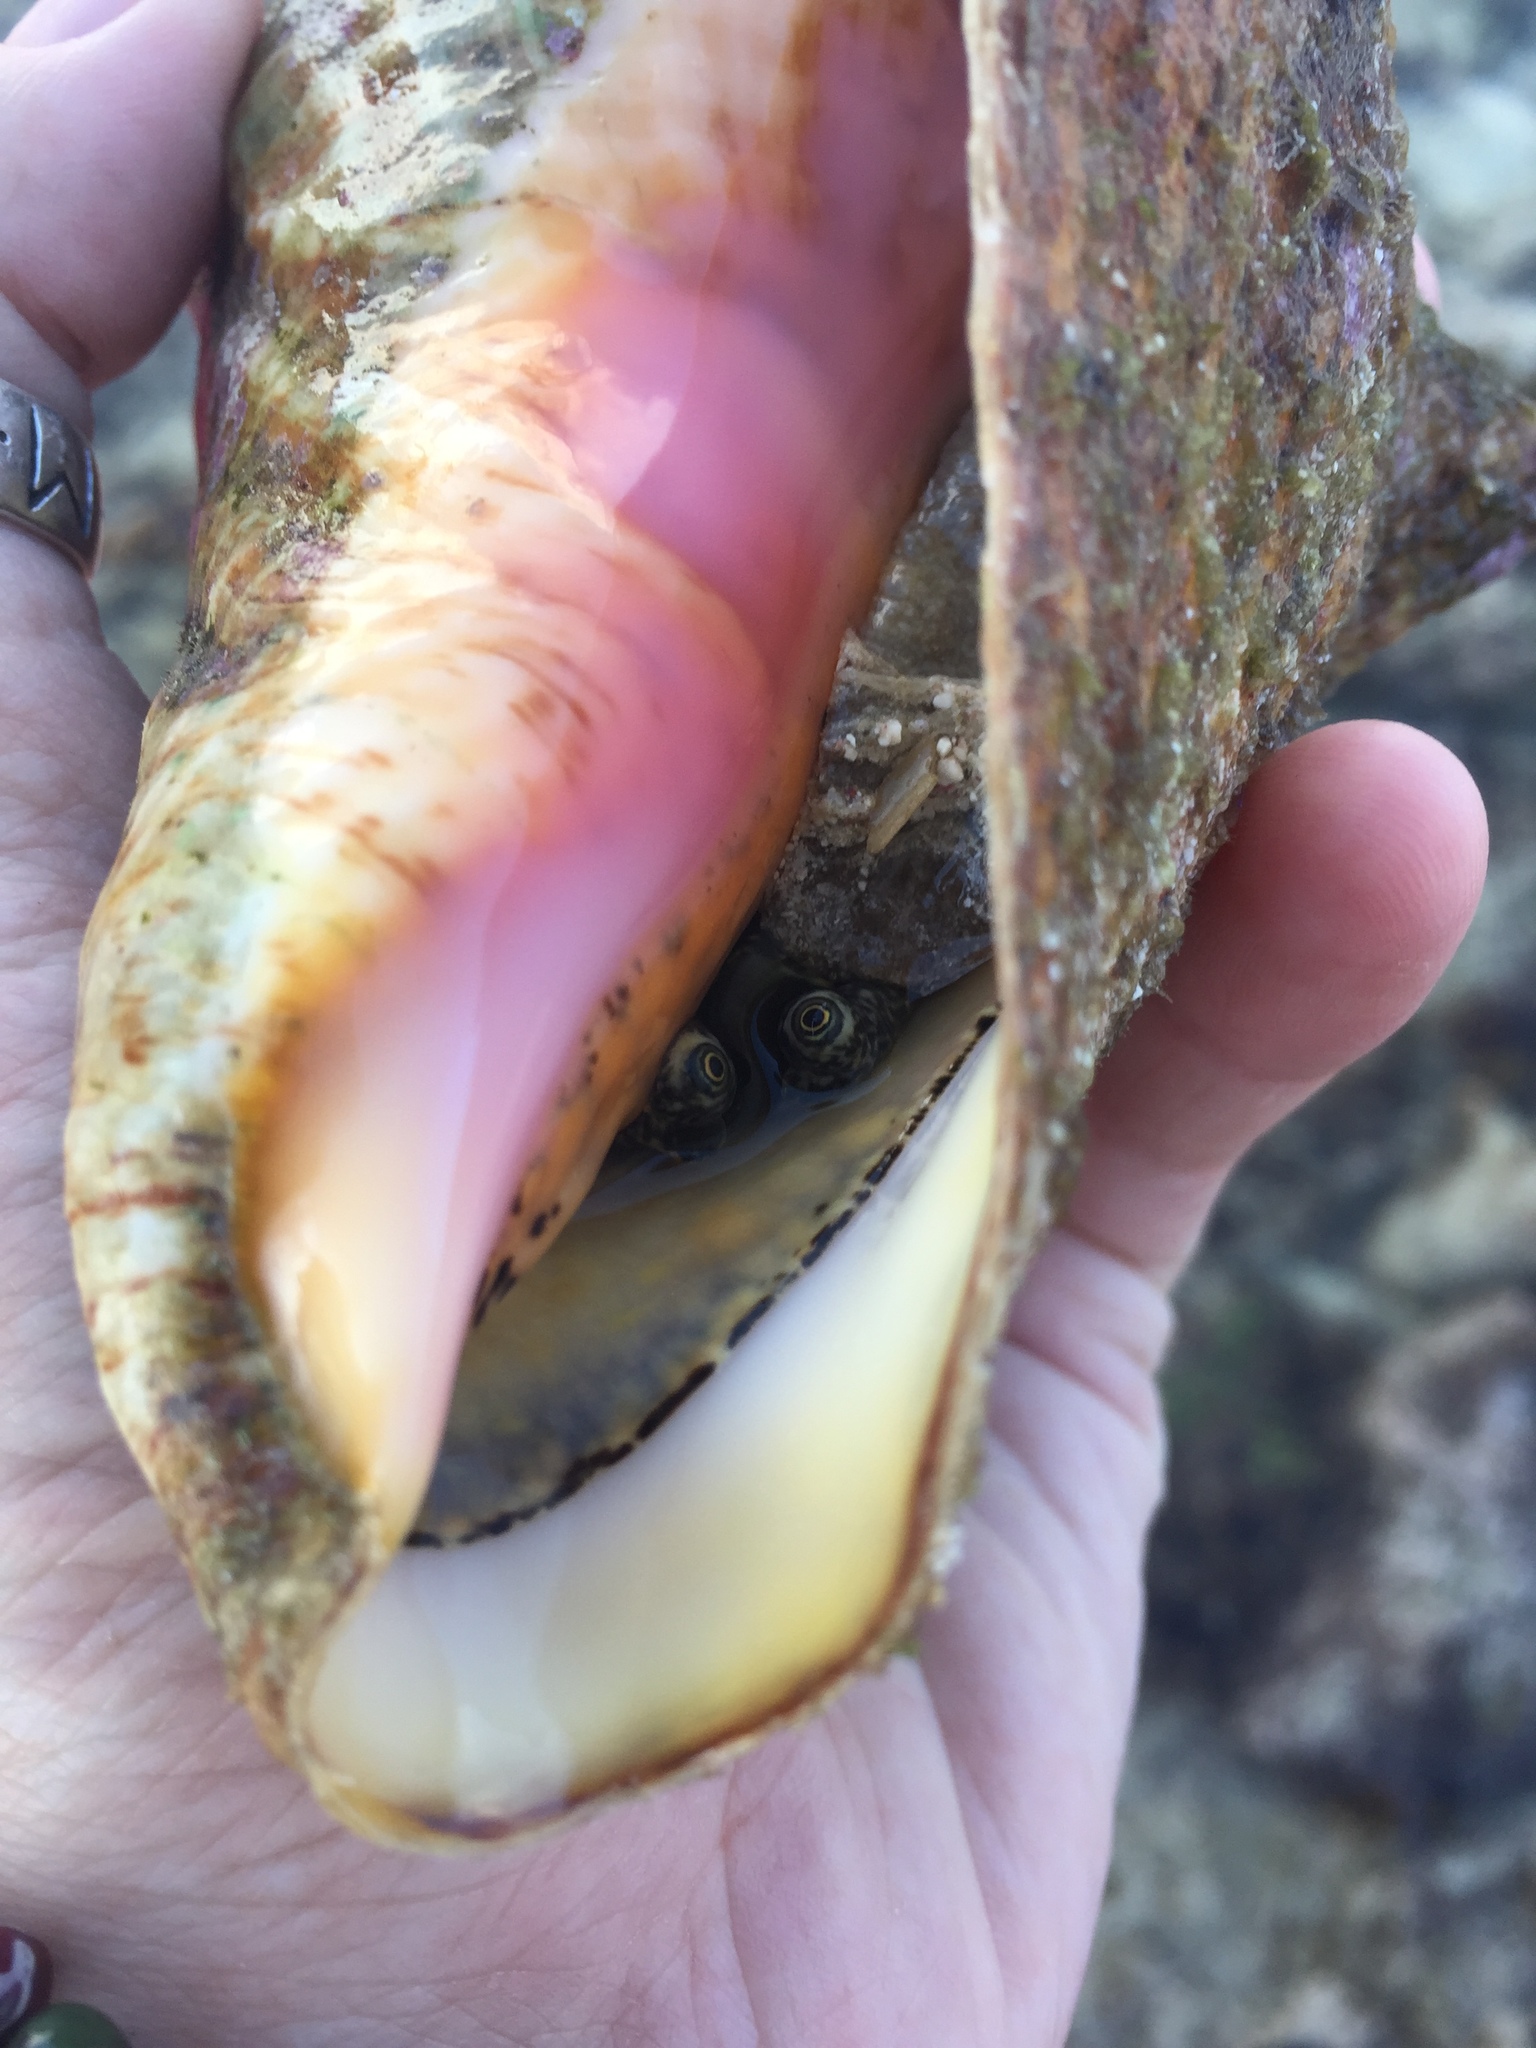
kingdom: Animalia
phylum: Mollusca
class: Gastropoda
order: Littorinimorpha
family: Strombidae
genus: Aliger
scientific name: Aliger gigas
